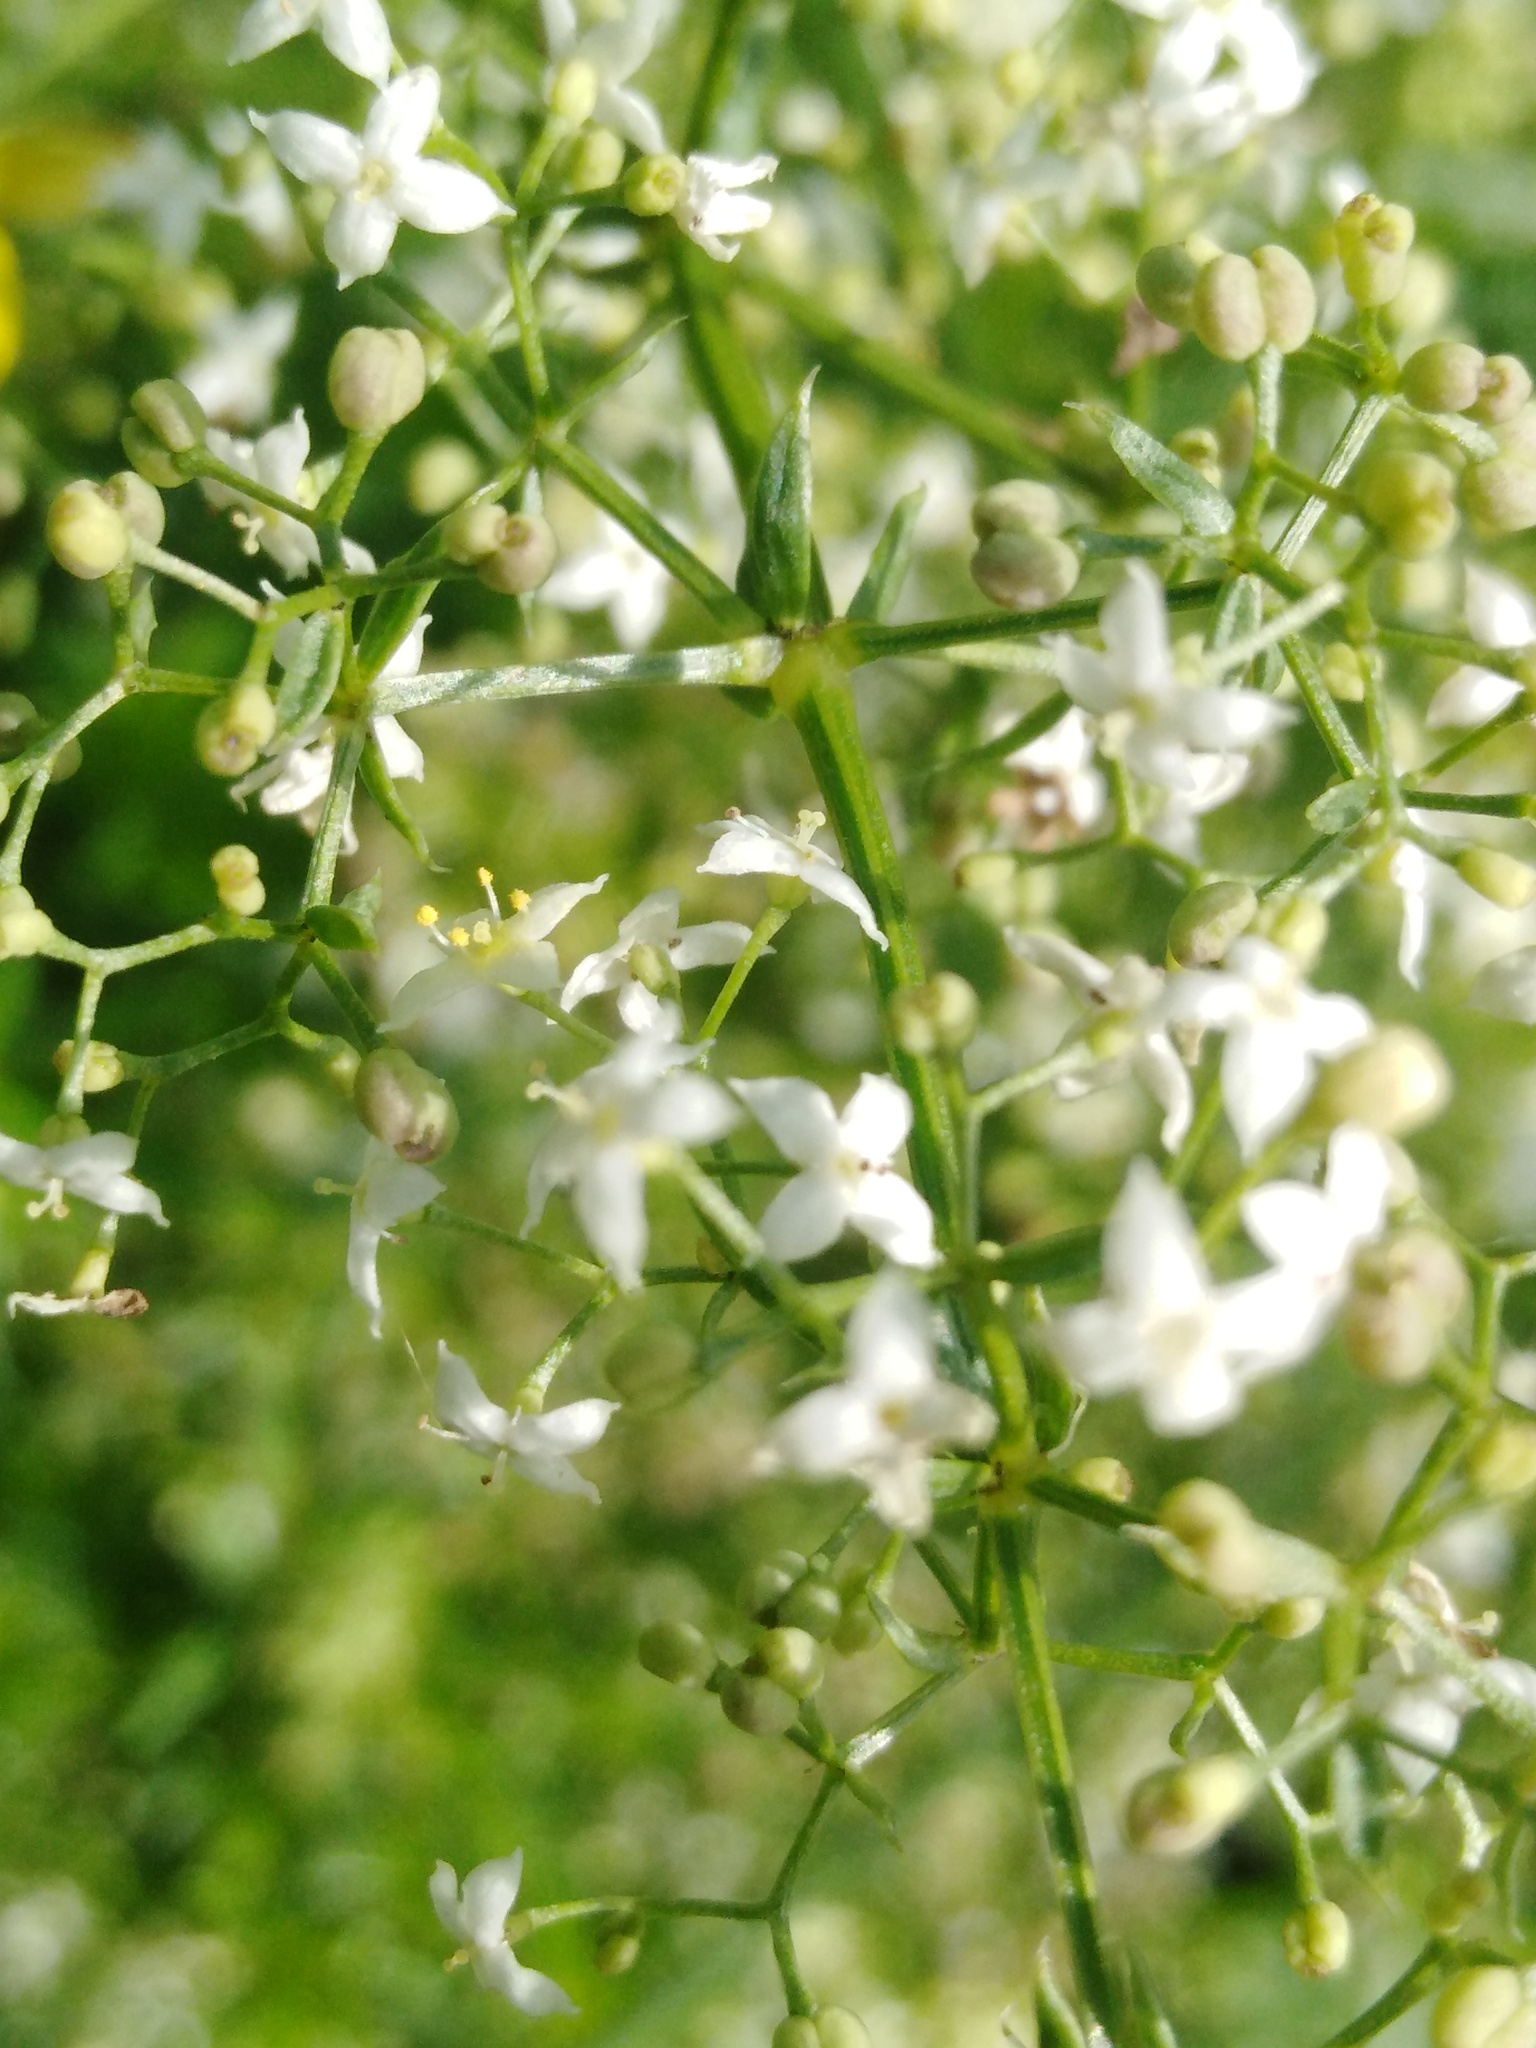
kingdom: Plantae
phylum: Tracheophyta
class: Magnoliopsida
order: Gentianales
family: Rubiaceae
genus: Galium
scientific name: Galium mollugo
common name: Hedge bedstraw
